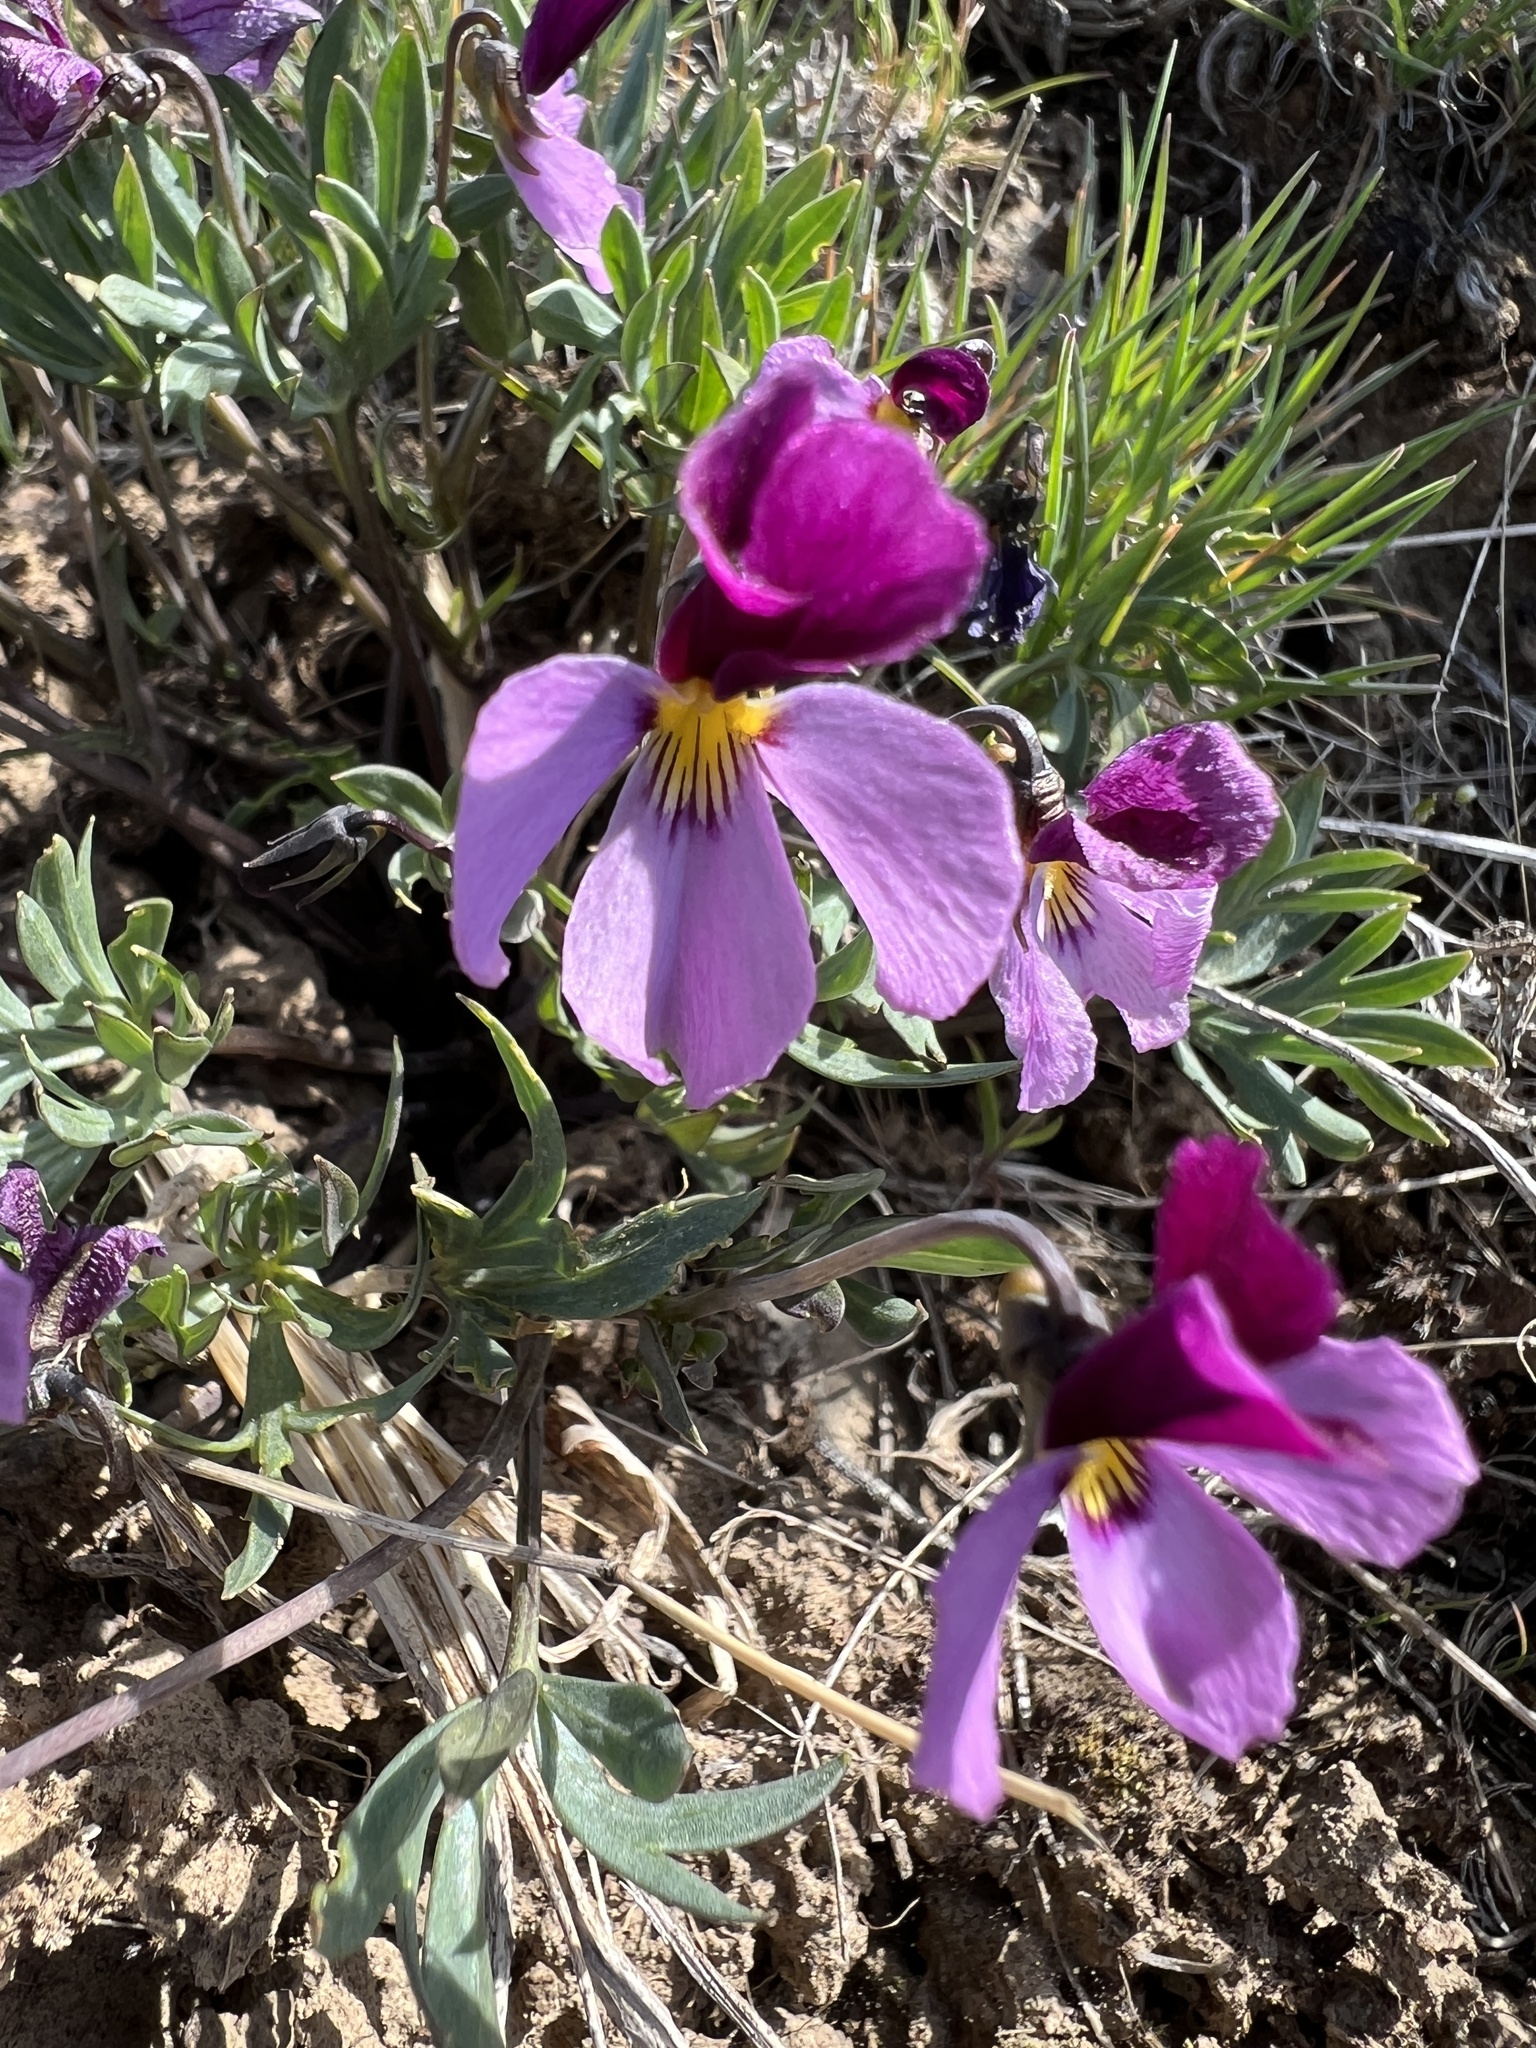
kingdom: Plantae
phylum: Tracheophyta
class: Magnoliopsida
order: Malpighiales
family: Violaceae
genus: Viola
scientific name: Viola trinervata
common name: Sagebrush violet
